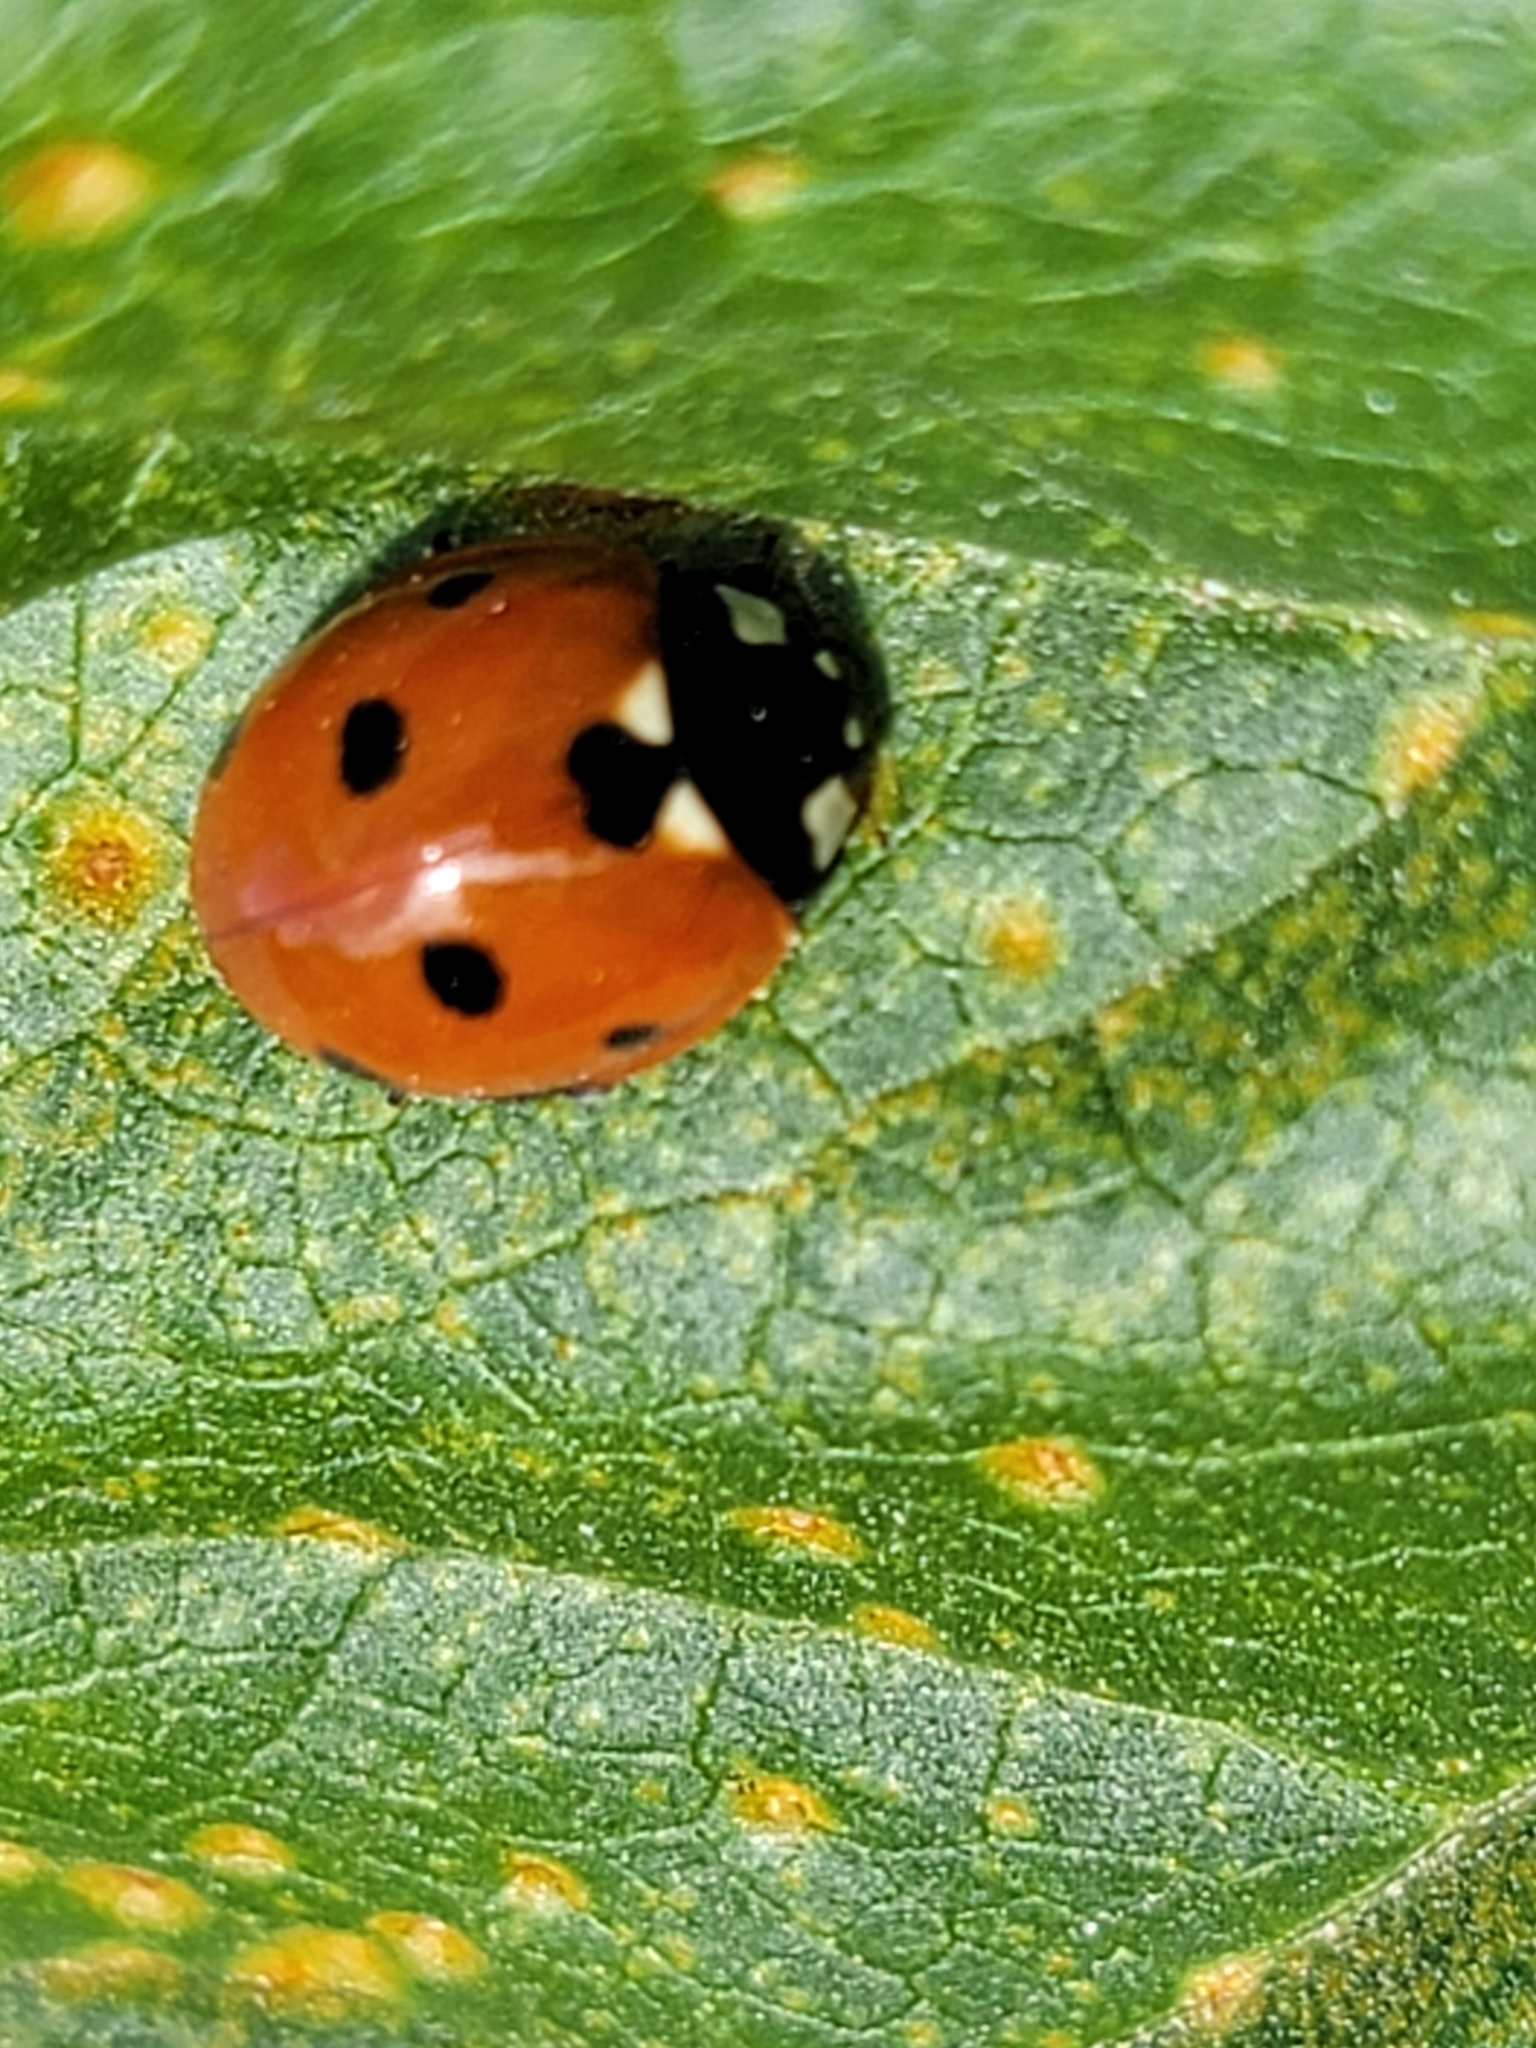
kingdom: Animalia
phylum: Arthropoda
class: Insecta
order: Coleoptera
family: Coccinellidae
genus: Coccinella
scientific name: Coccinella septempunctata
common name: Sevenspotted lady beetle
